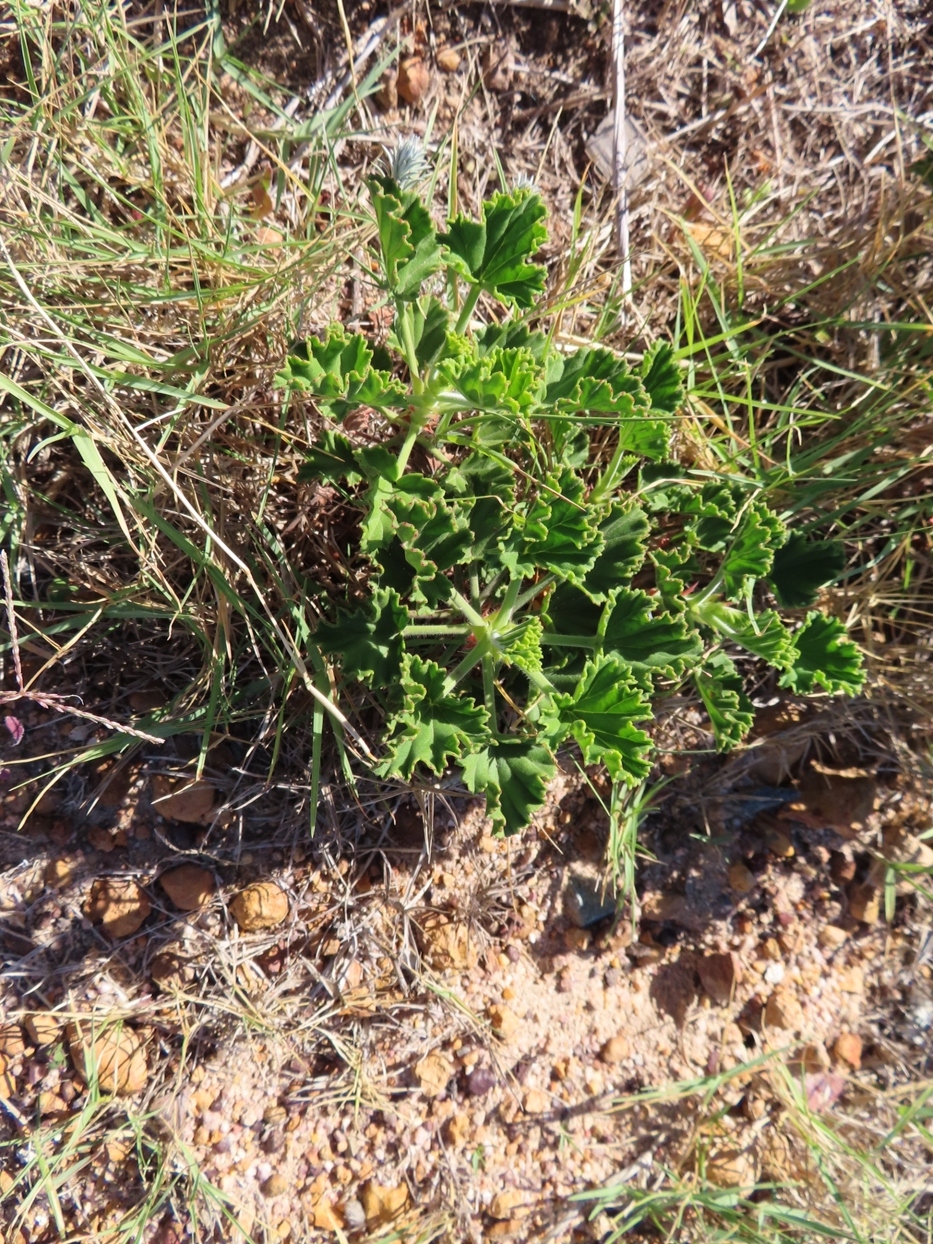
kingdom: Plantae
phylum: Tracheophyta
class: Magnoliopsida
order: Geraniales
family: Geraniaceae
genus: Pelargonium
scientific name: Pelargonium cucullatum
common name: Tree pelargonium
